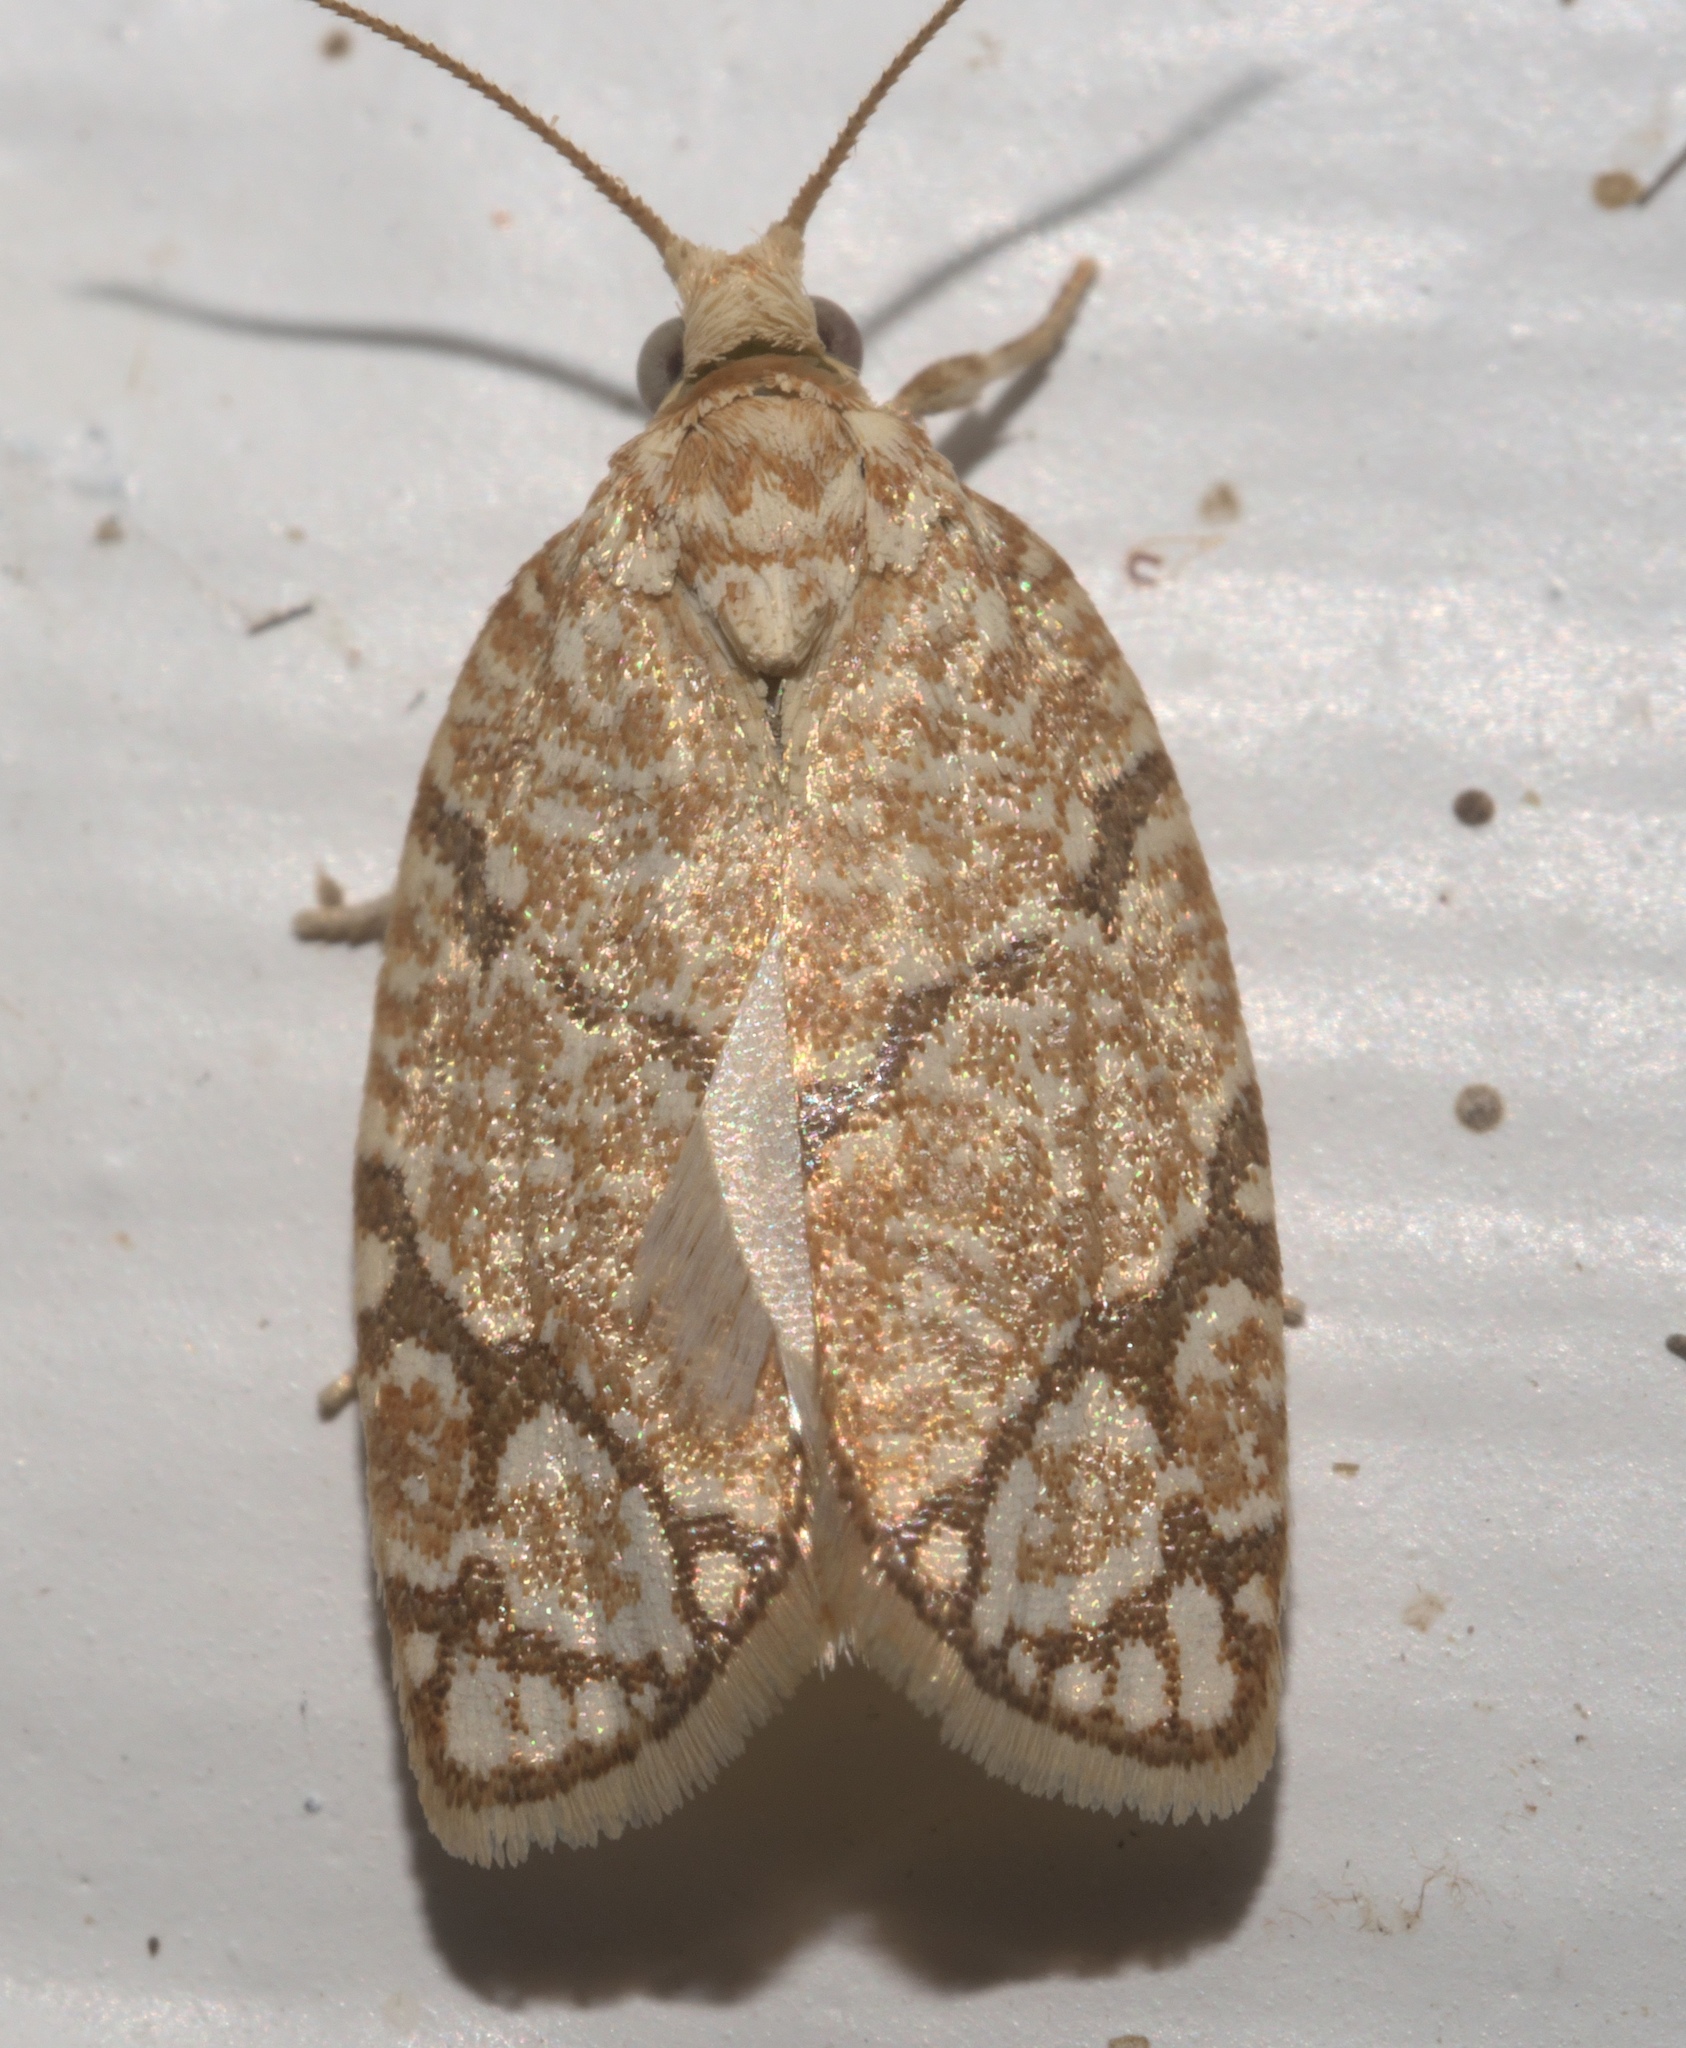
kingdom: Animalia
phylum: Arthropoda
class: Insecta
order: Lepidoptera
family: Tortricidae
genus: Argyrotaenia
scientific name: Argyrotaenia quercifoliana
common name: Yellow-winged oak leafroller moth
